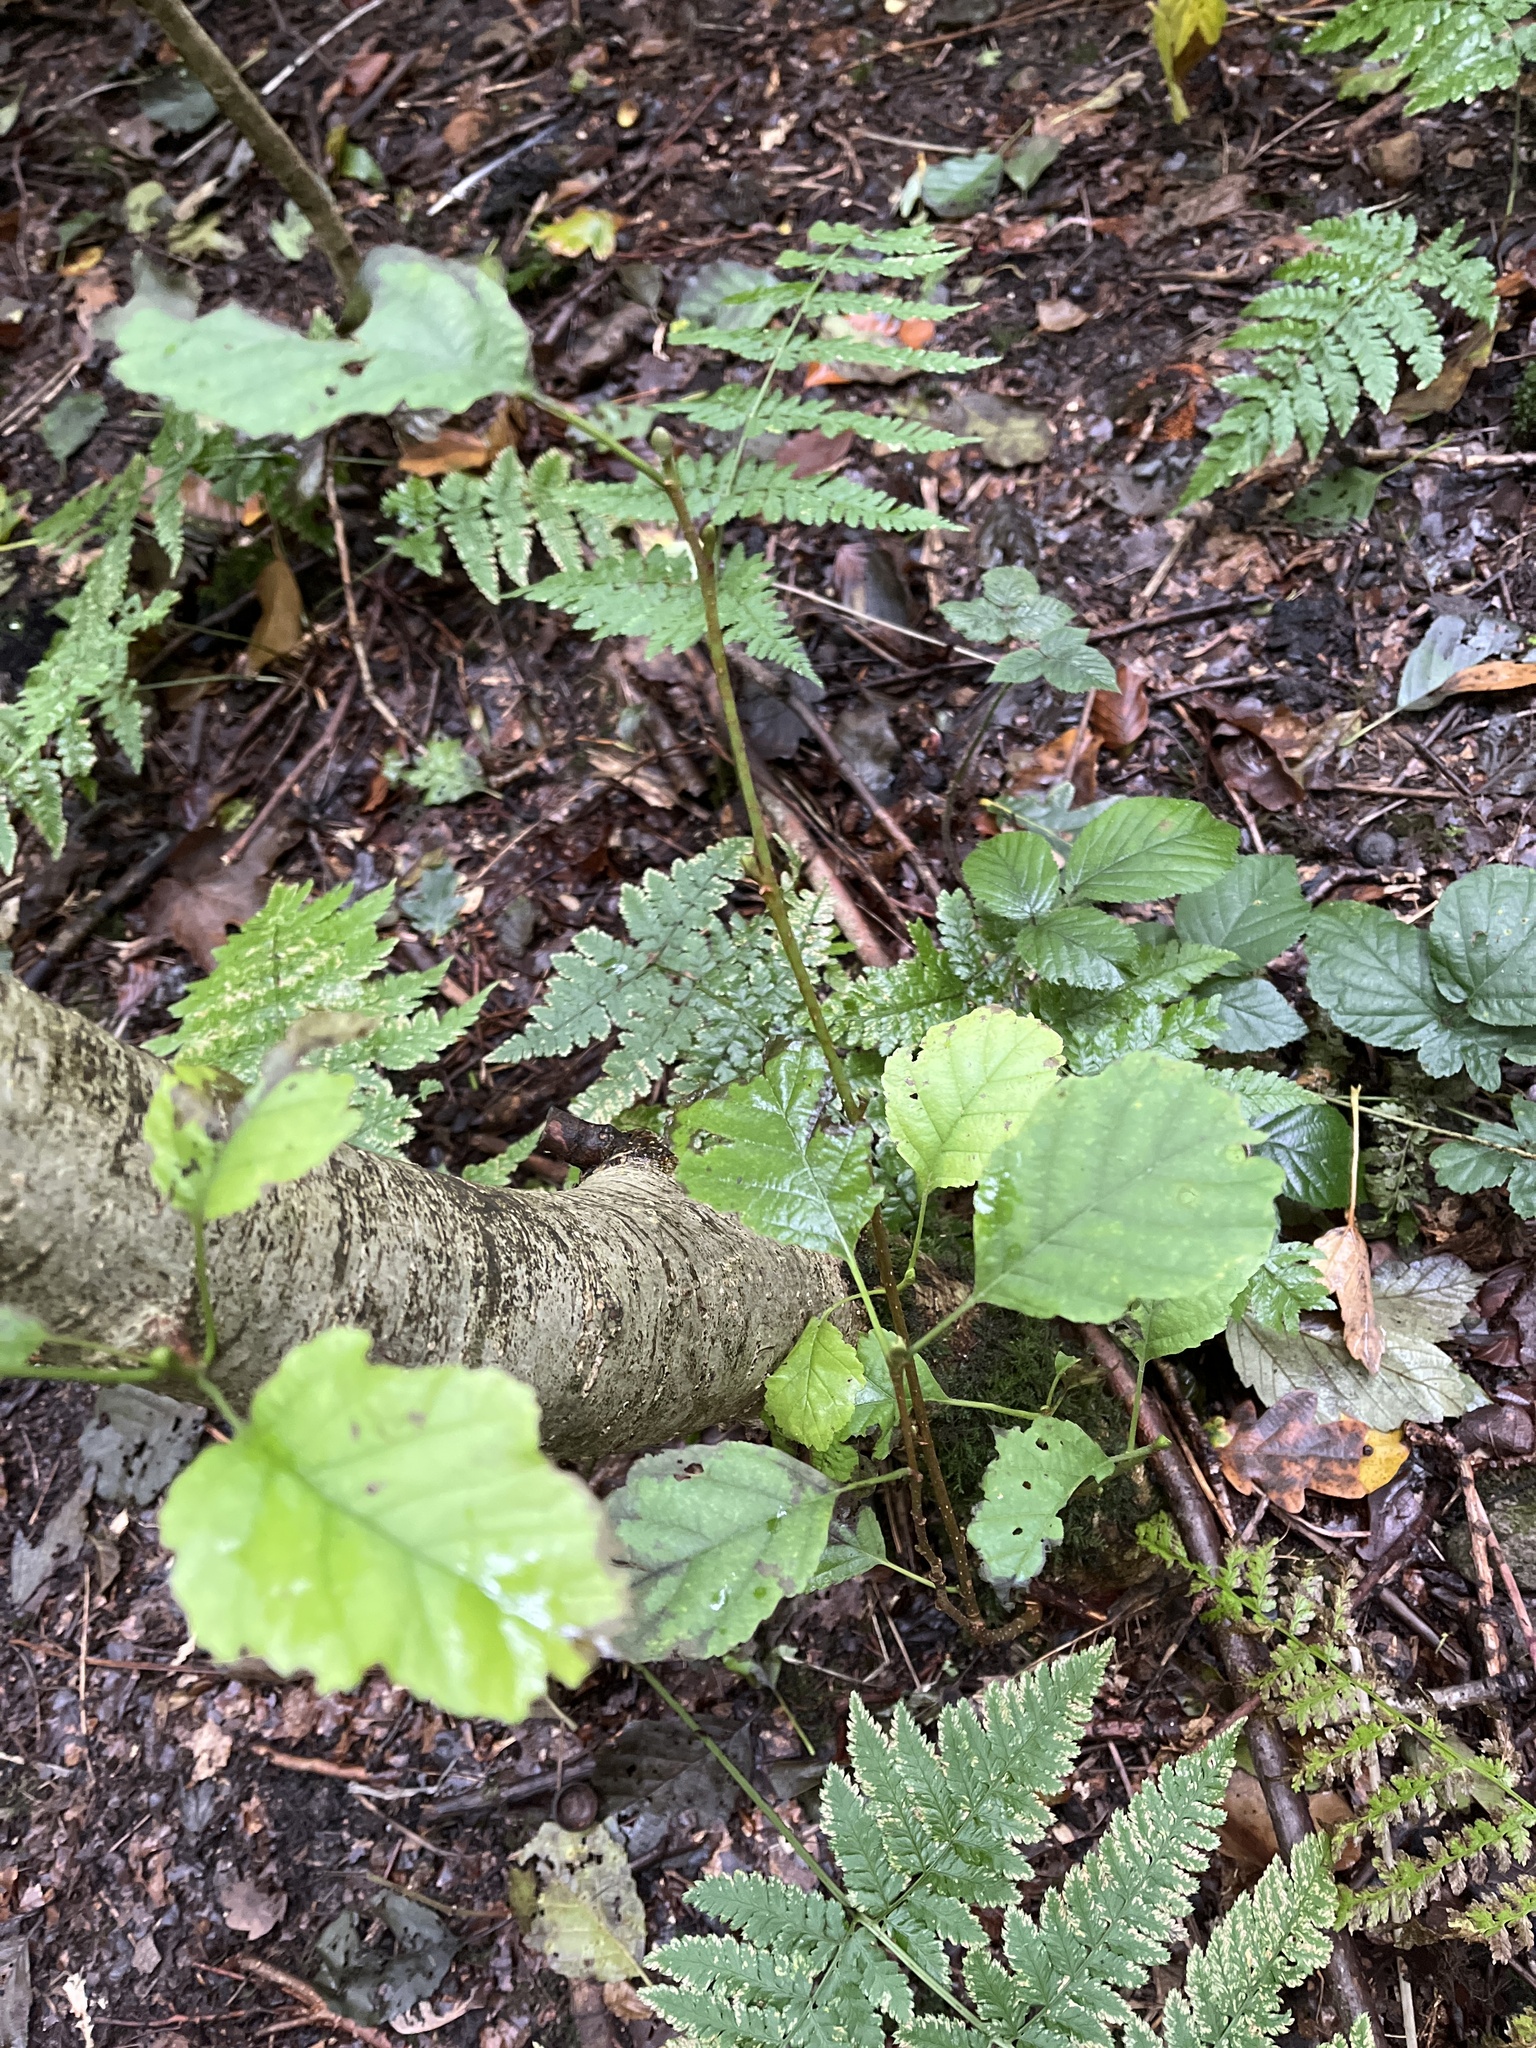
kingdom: Plantae
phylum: Tracheophyta
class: Magnoliopsida
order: Fagales
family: Betulaceae
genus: Alnus
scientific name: Alnus glutinosa
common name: Black alder
